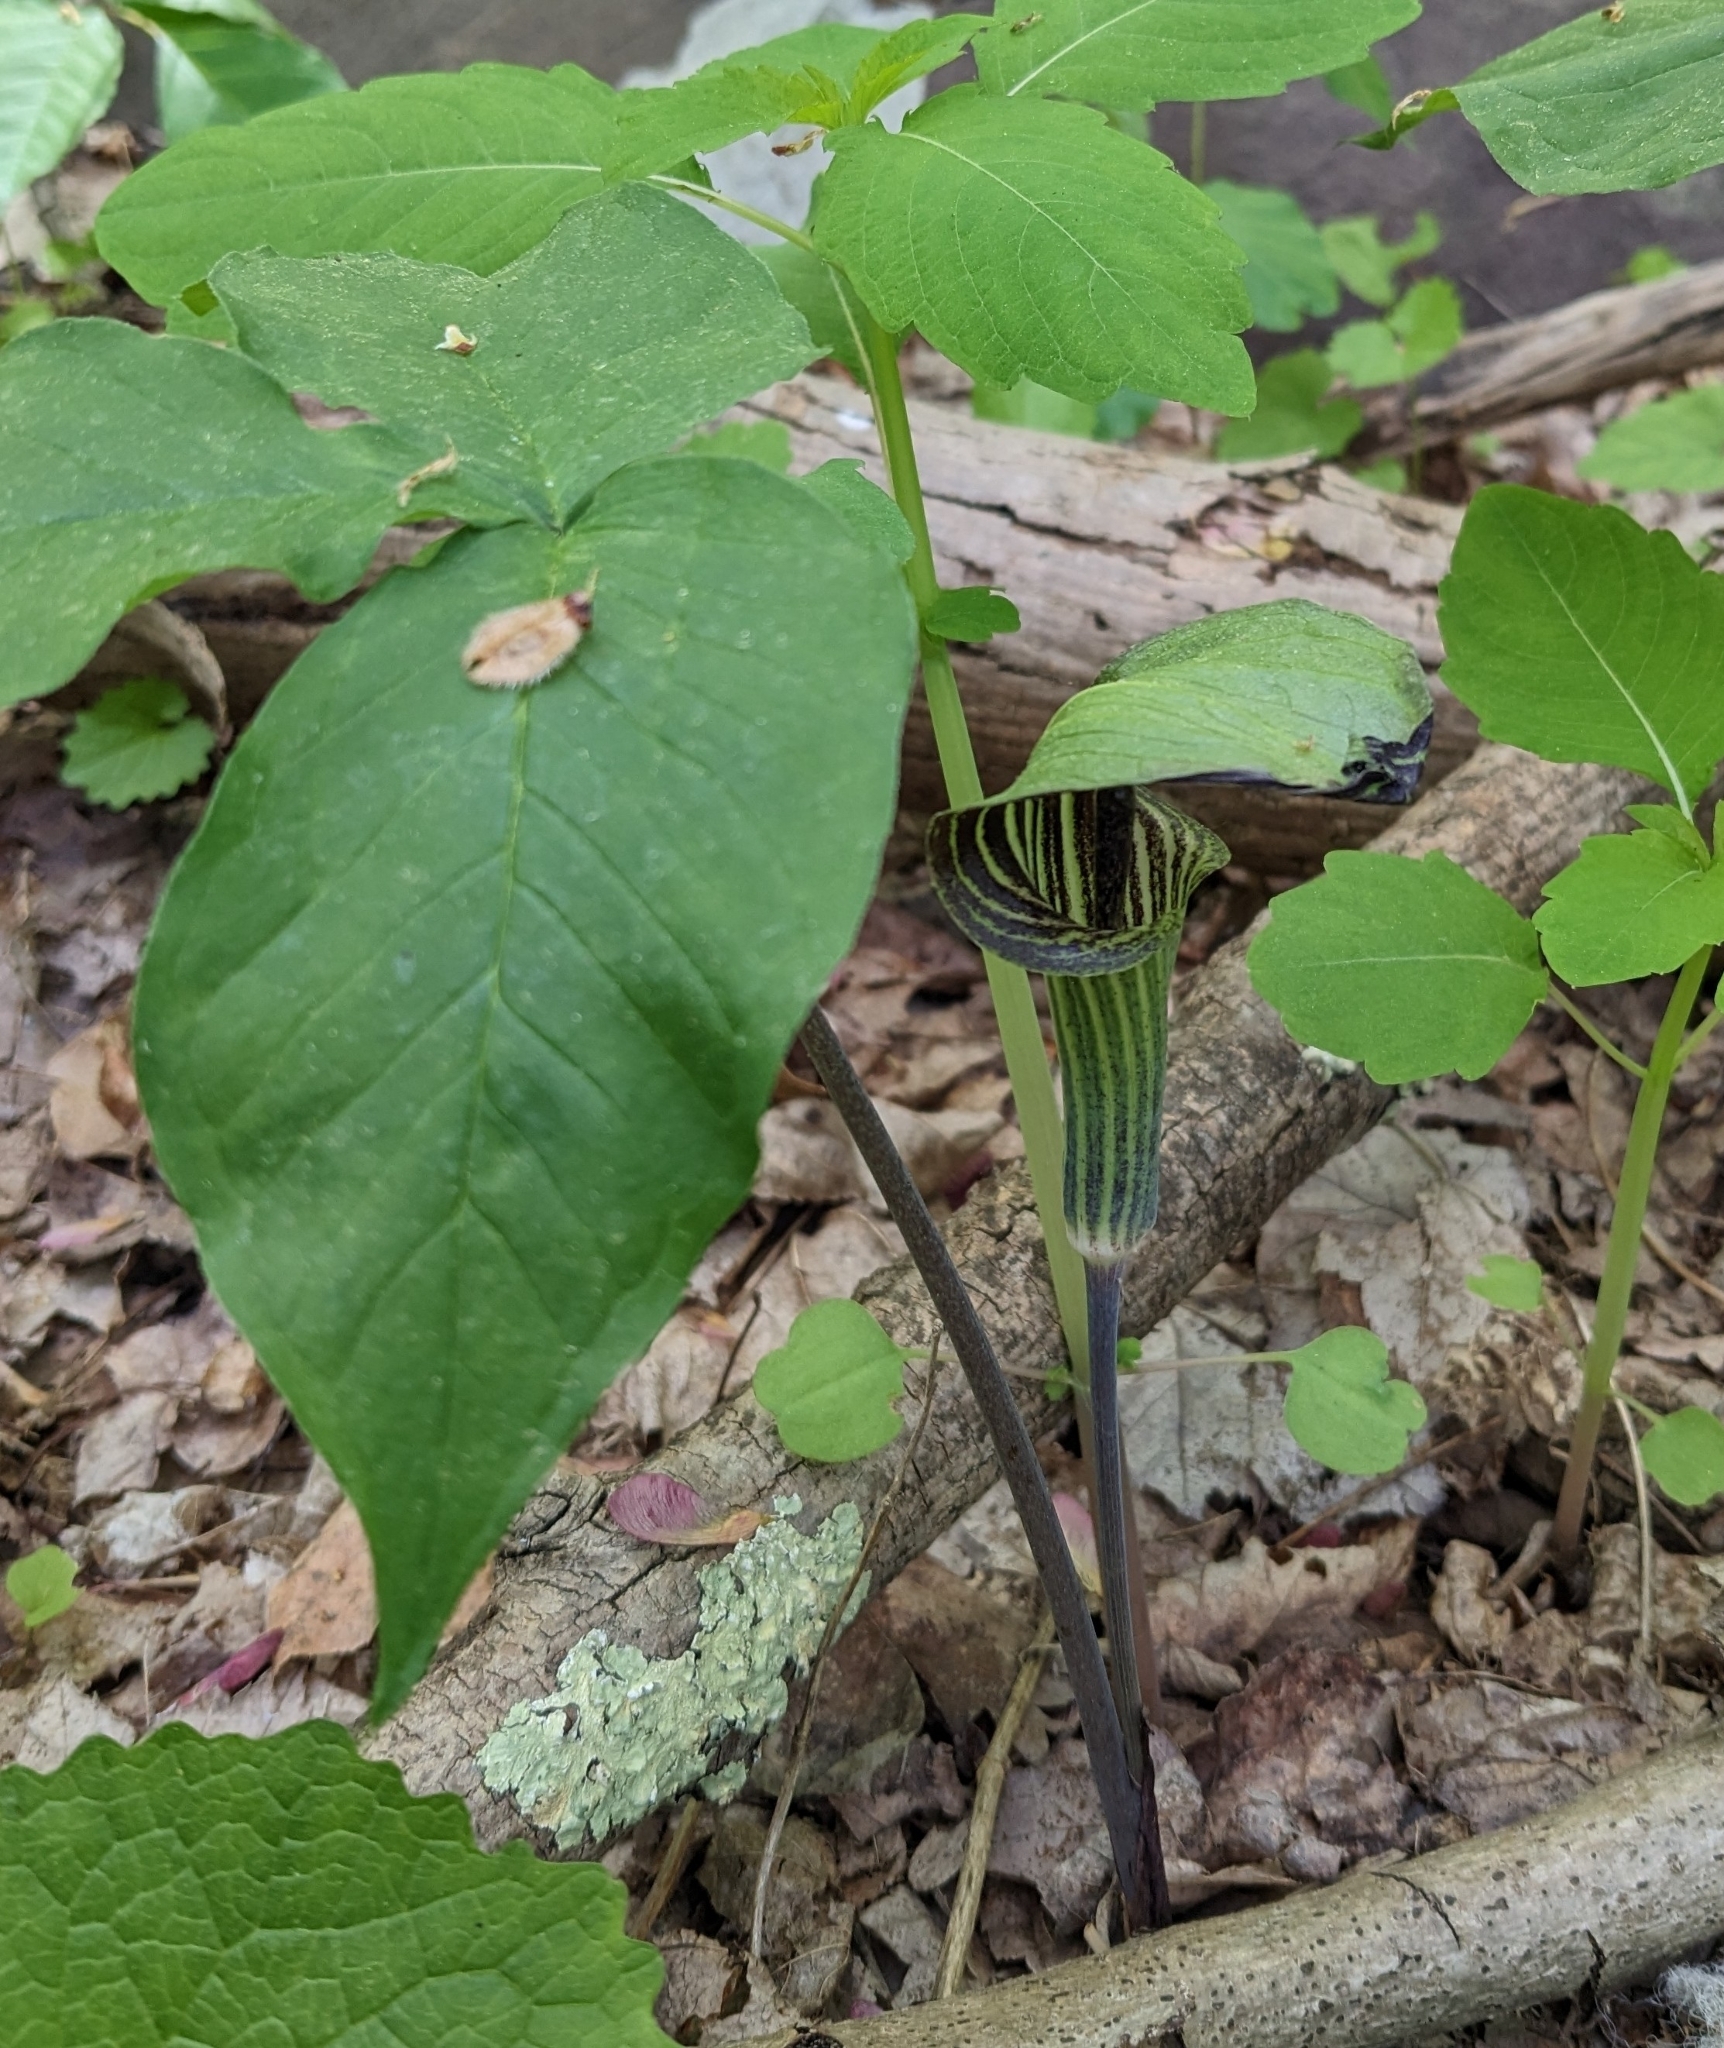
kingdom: Plantae
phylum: Tracheophyta
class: Liliopsida
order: Alismatales
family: Araceae
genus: Arisaema
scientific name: Arisaema triphyllum
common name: Jack-in-the-pulpit
